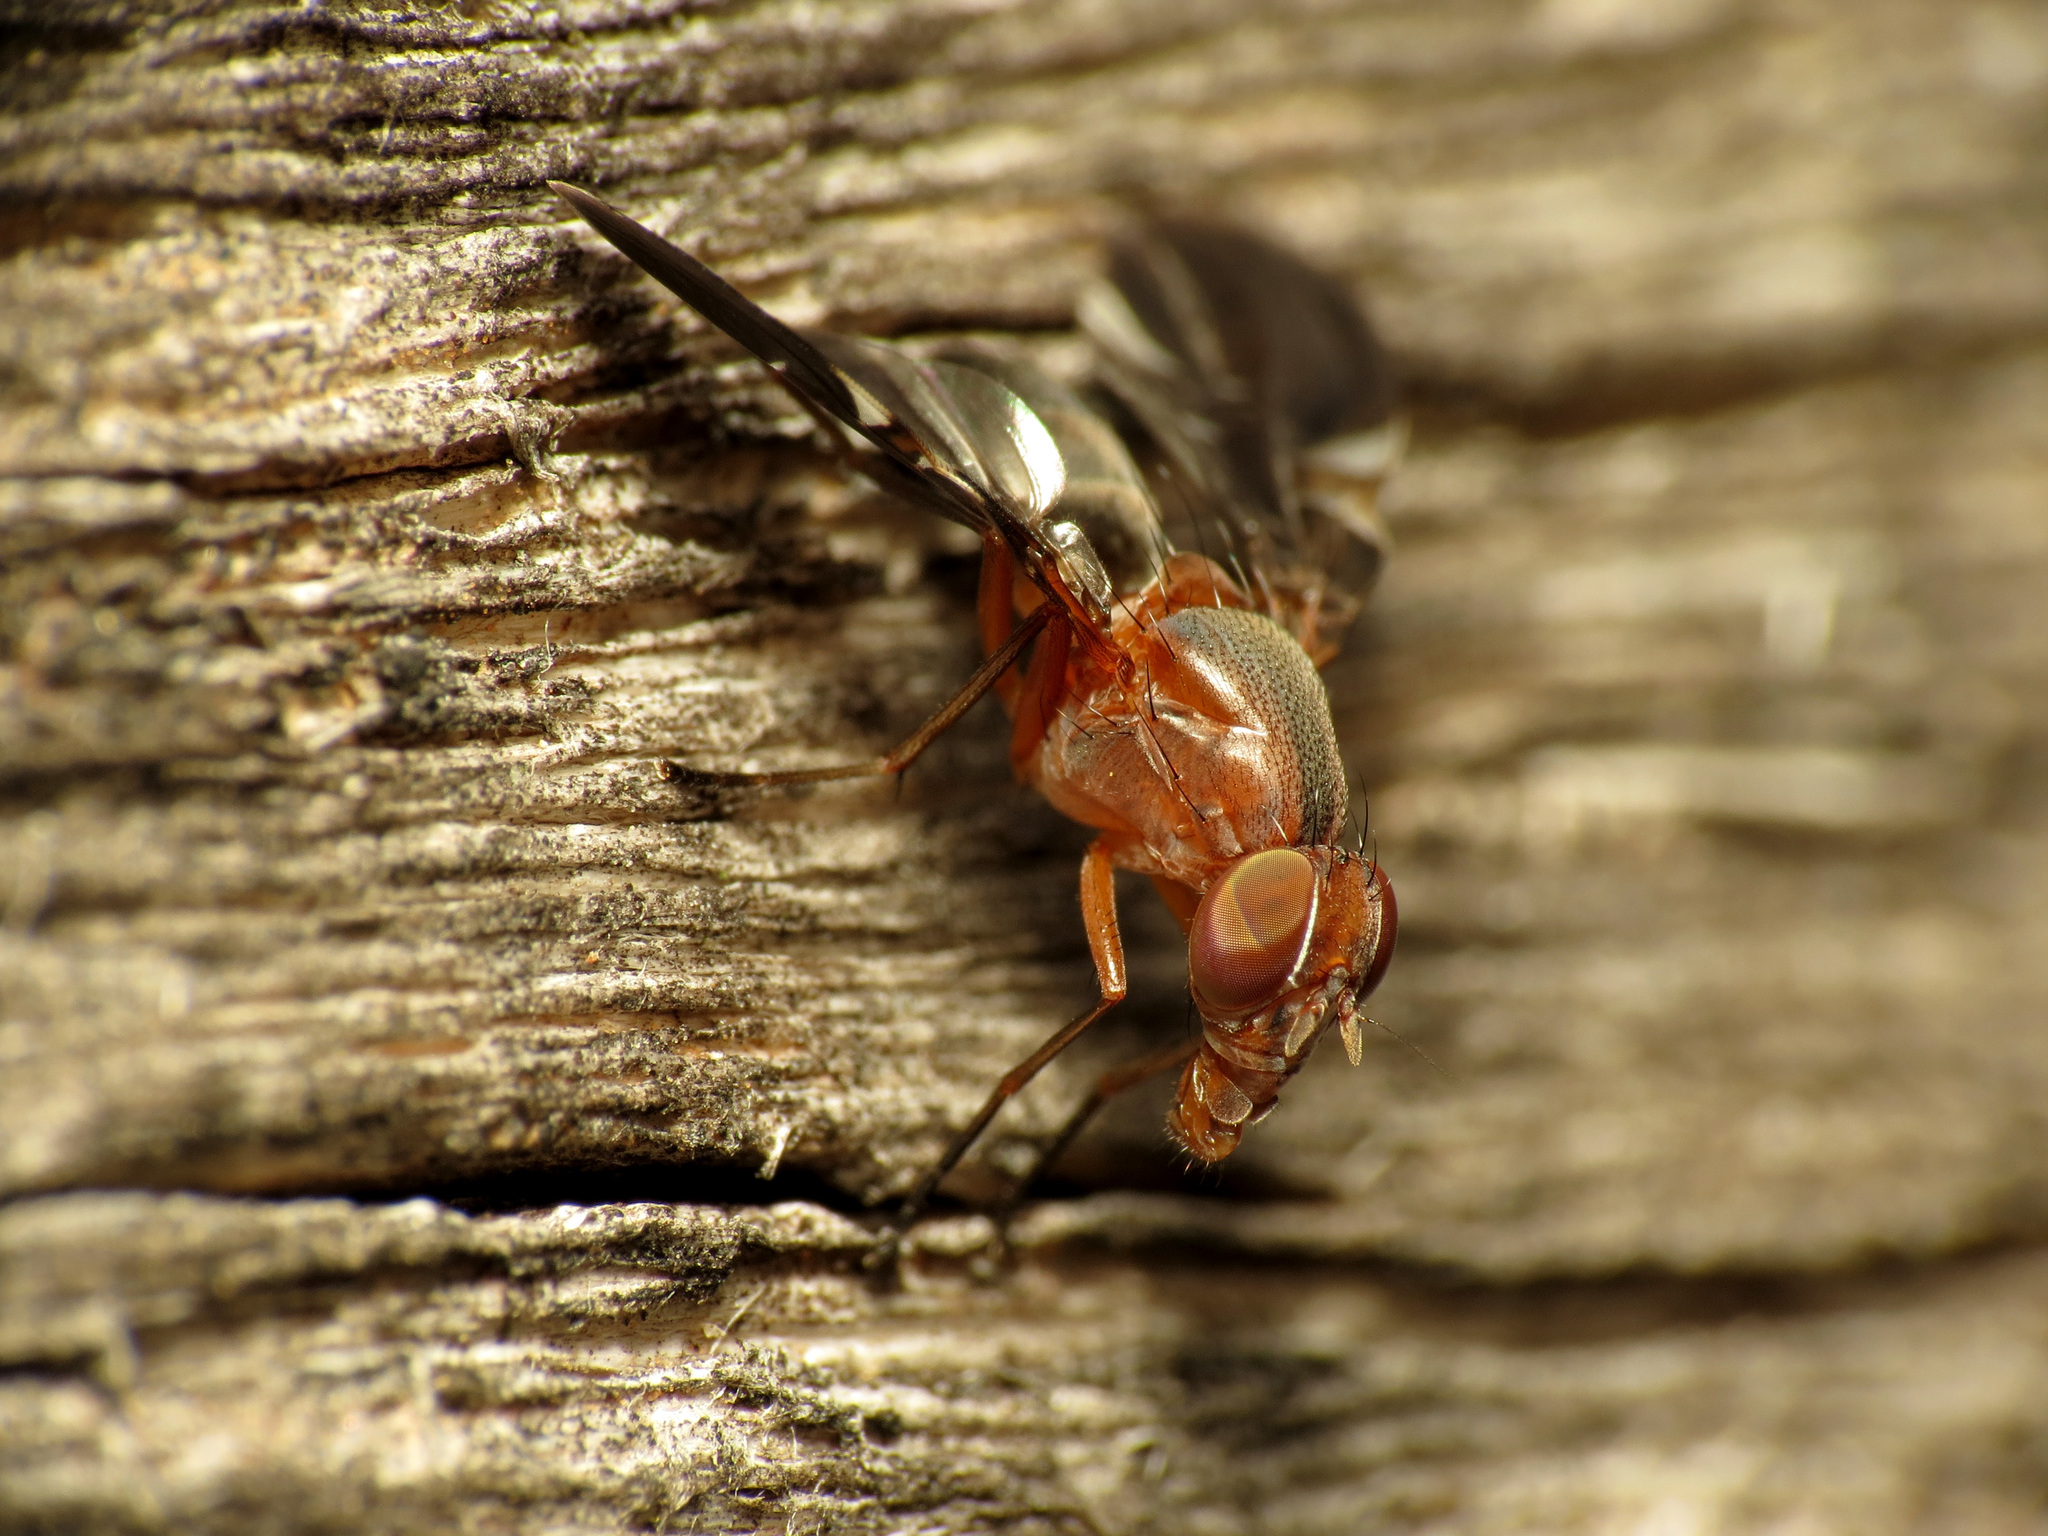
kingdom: Animalia
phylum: Arthropoda
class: Insecta
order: Diptera
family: Ulidiidae
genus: Delphinia
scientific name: Delphinia picta
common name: Common picture-winged fly
